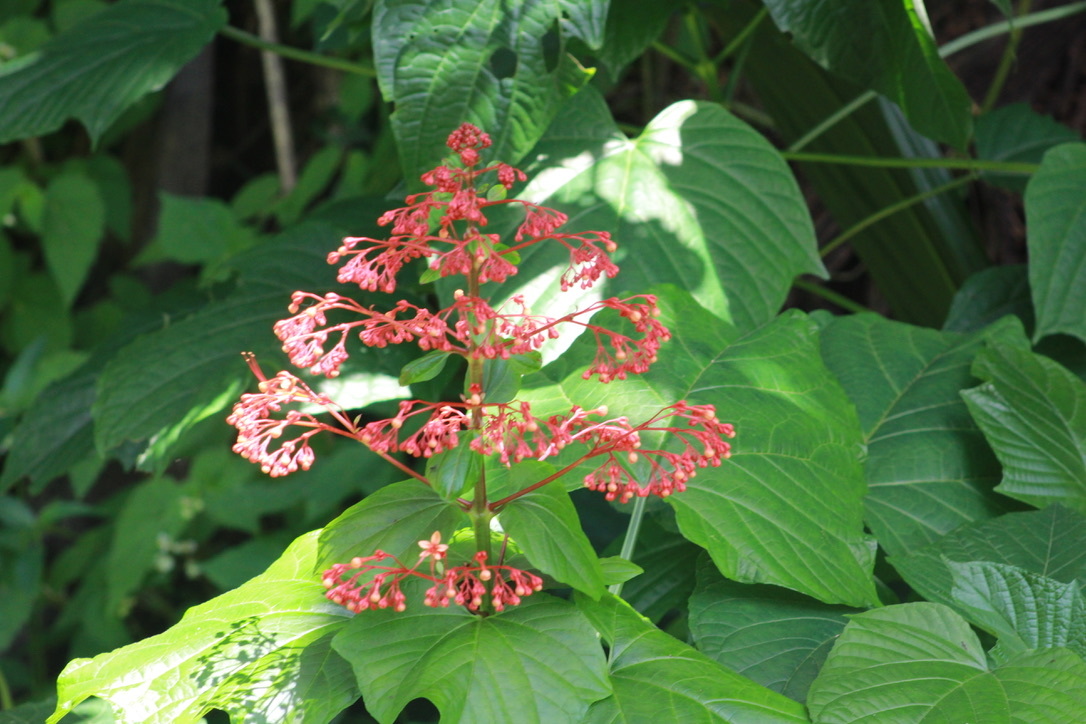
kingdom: Plantae
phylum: Tracheophyta
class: Magnoliopsida
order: Lamiales
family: Lamiaceae
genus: Clerodendrum
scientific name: Clerodendrum paniculatum
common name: Pagoda-flower
